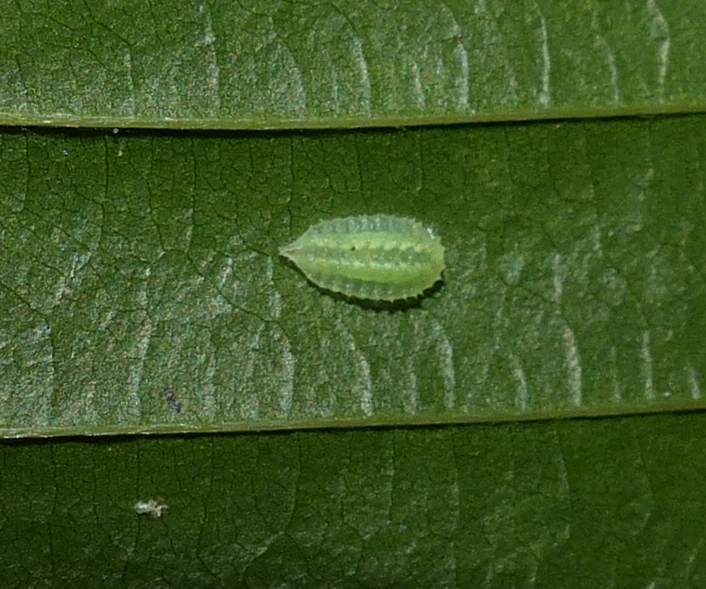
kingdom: Animalia
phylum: Arthropoda
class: Insecta
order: Lepidoptera
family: Limacodidae
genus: Packardia
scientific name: Packardia elegans
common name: Elegant tailed slug moth
